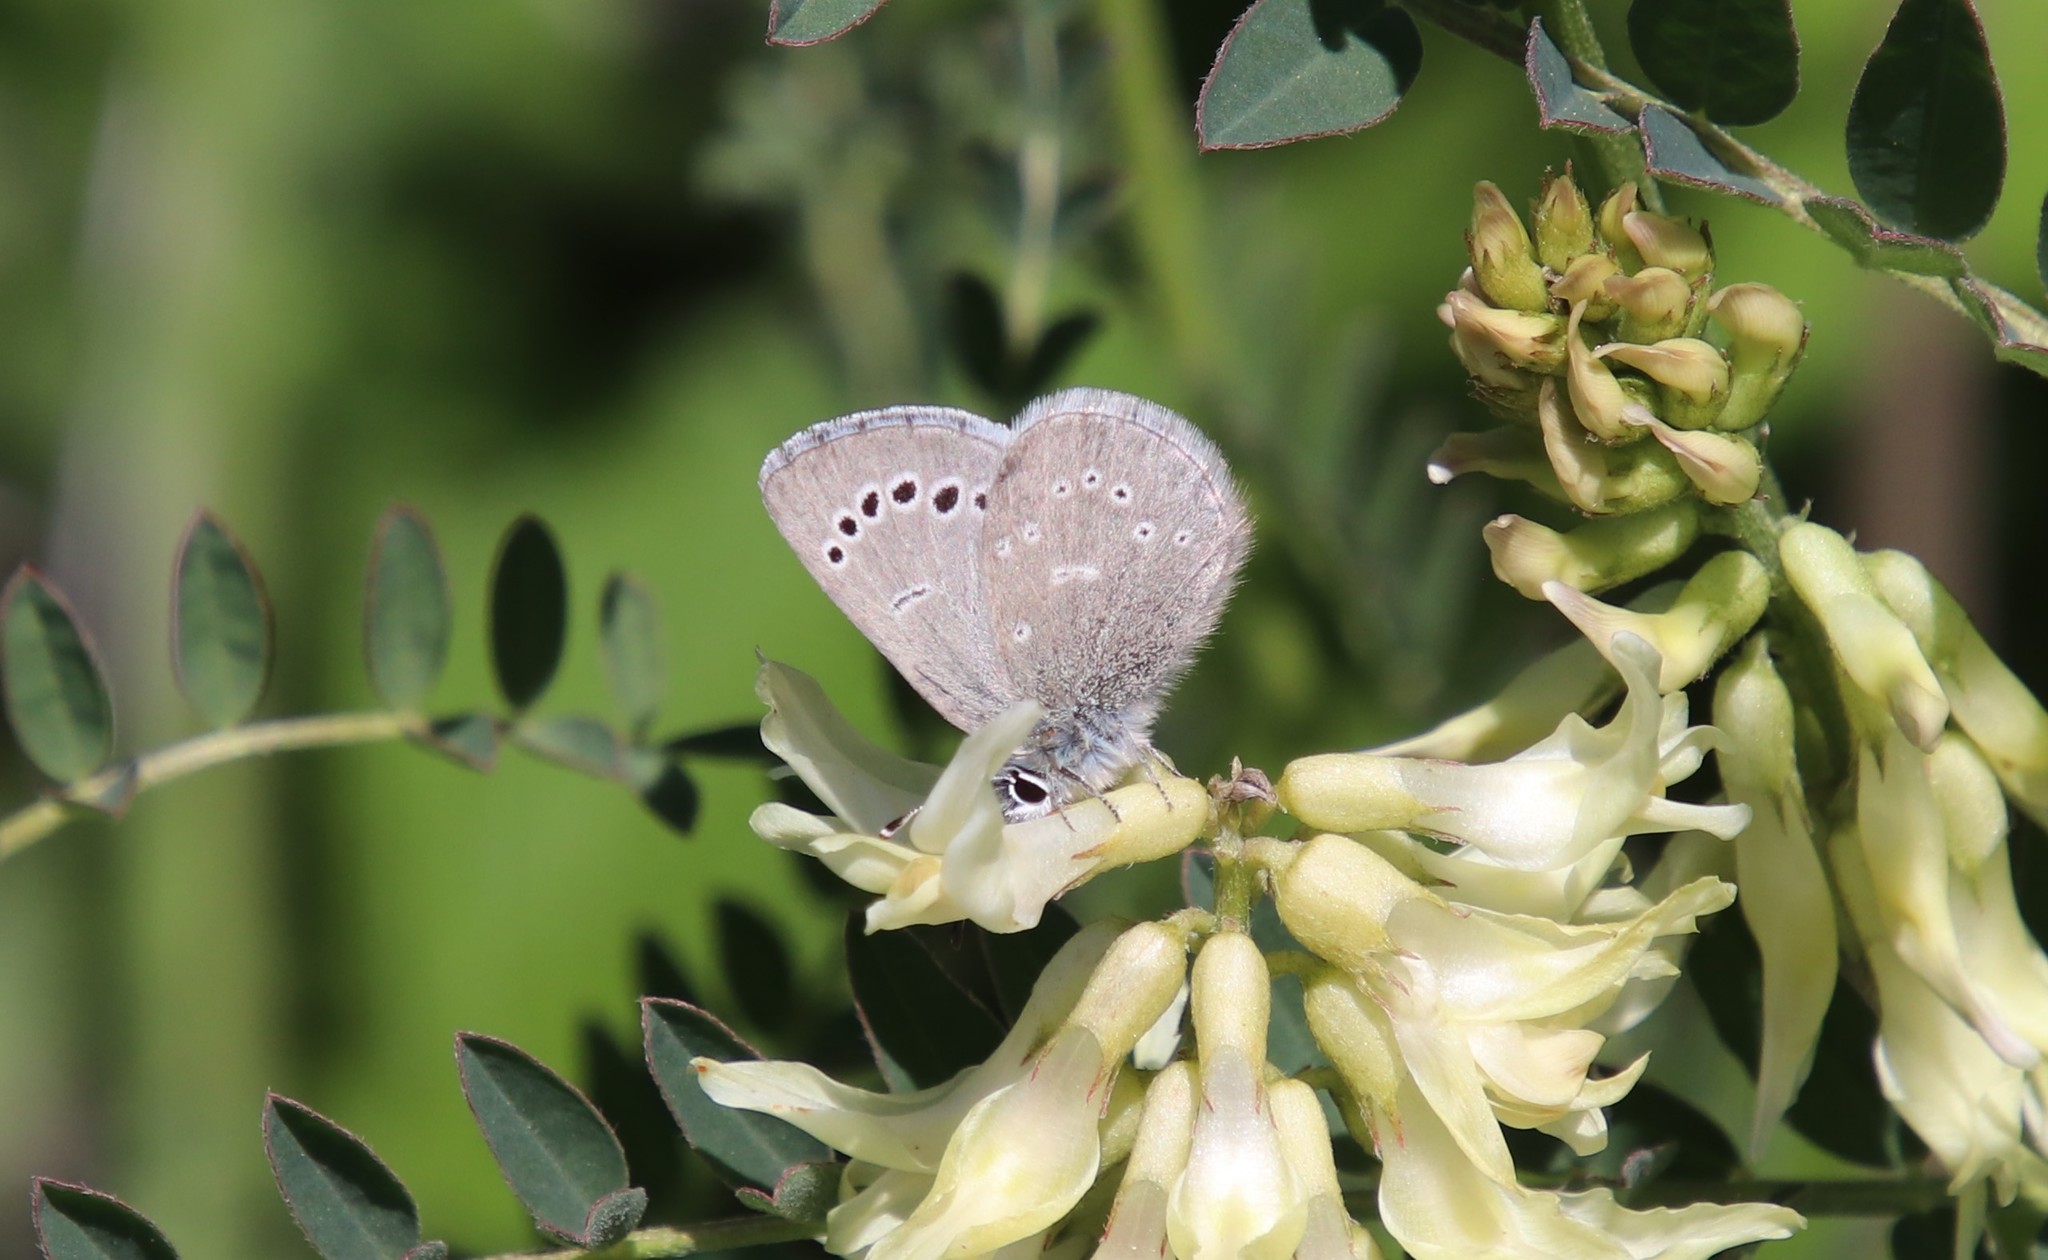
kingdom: Animalia
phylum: Arthropoda
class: Insecta
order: Lepidoptera
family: Lycaenidae
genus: Glaucopsyche
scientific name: Glaucopsyche lygdamus
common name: Silvery blue
